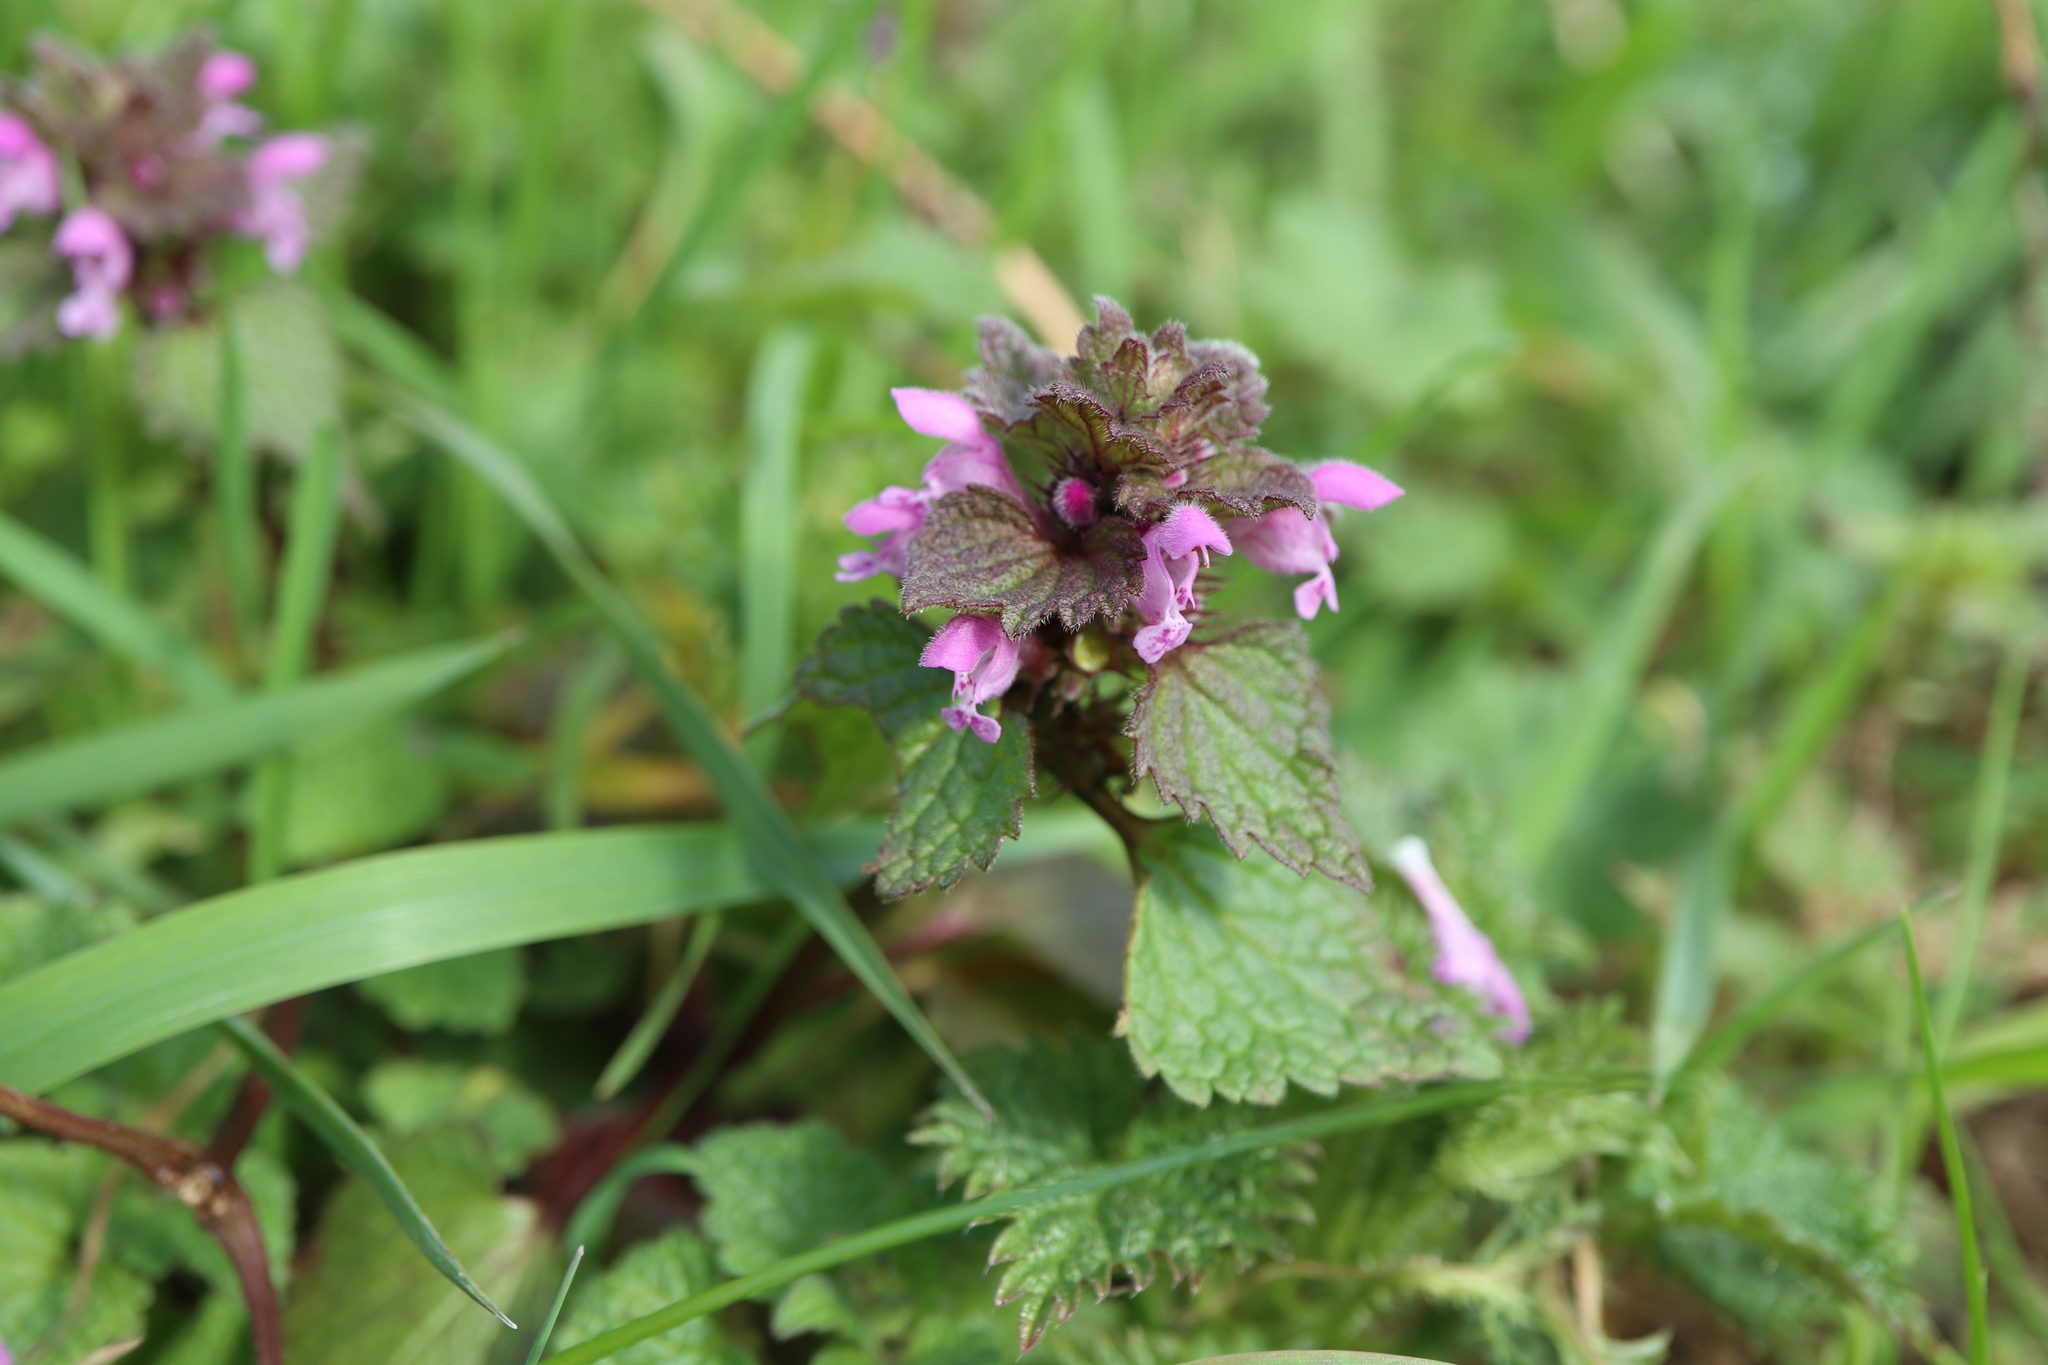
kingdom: Plantae
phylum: Tracheophyta
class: Magnoliopsida
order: Lamiales
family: Lamiaceae
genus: Lamium
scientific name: Lamium purpureum
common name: Red dead-nettle
